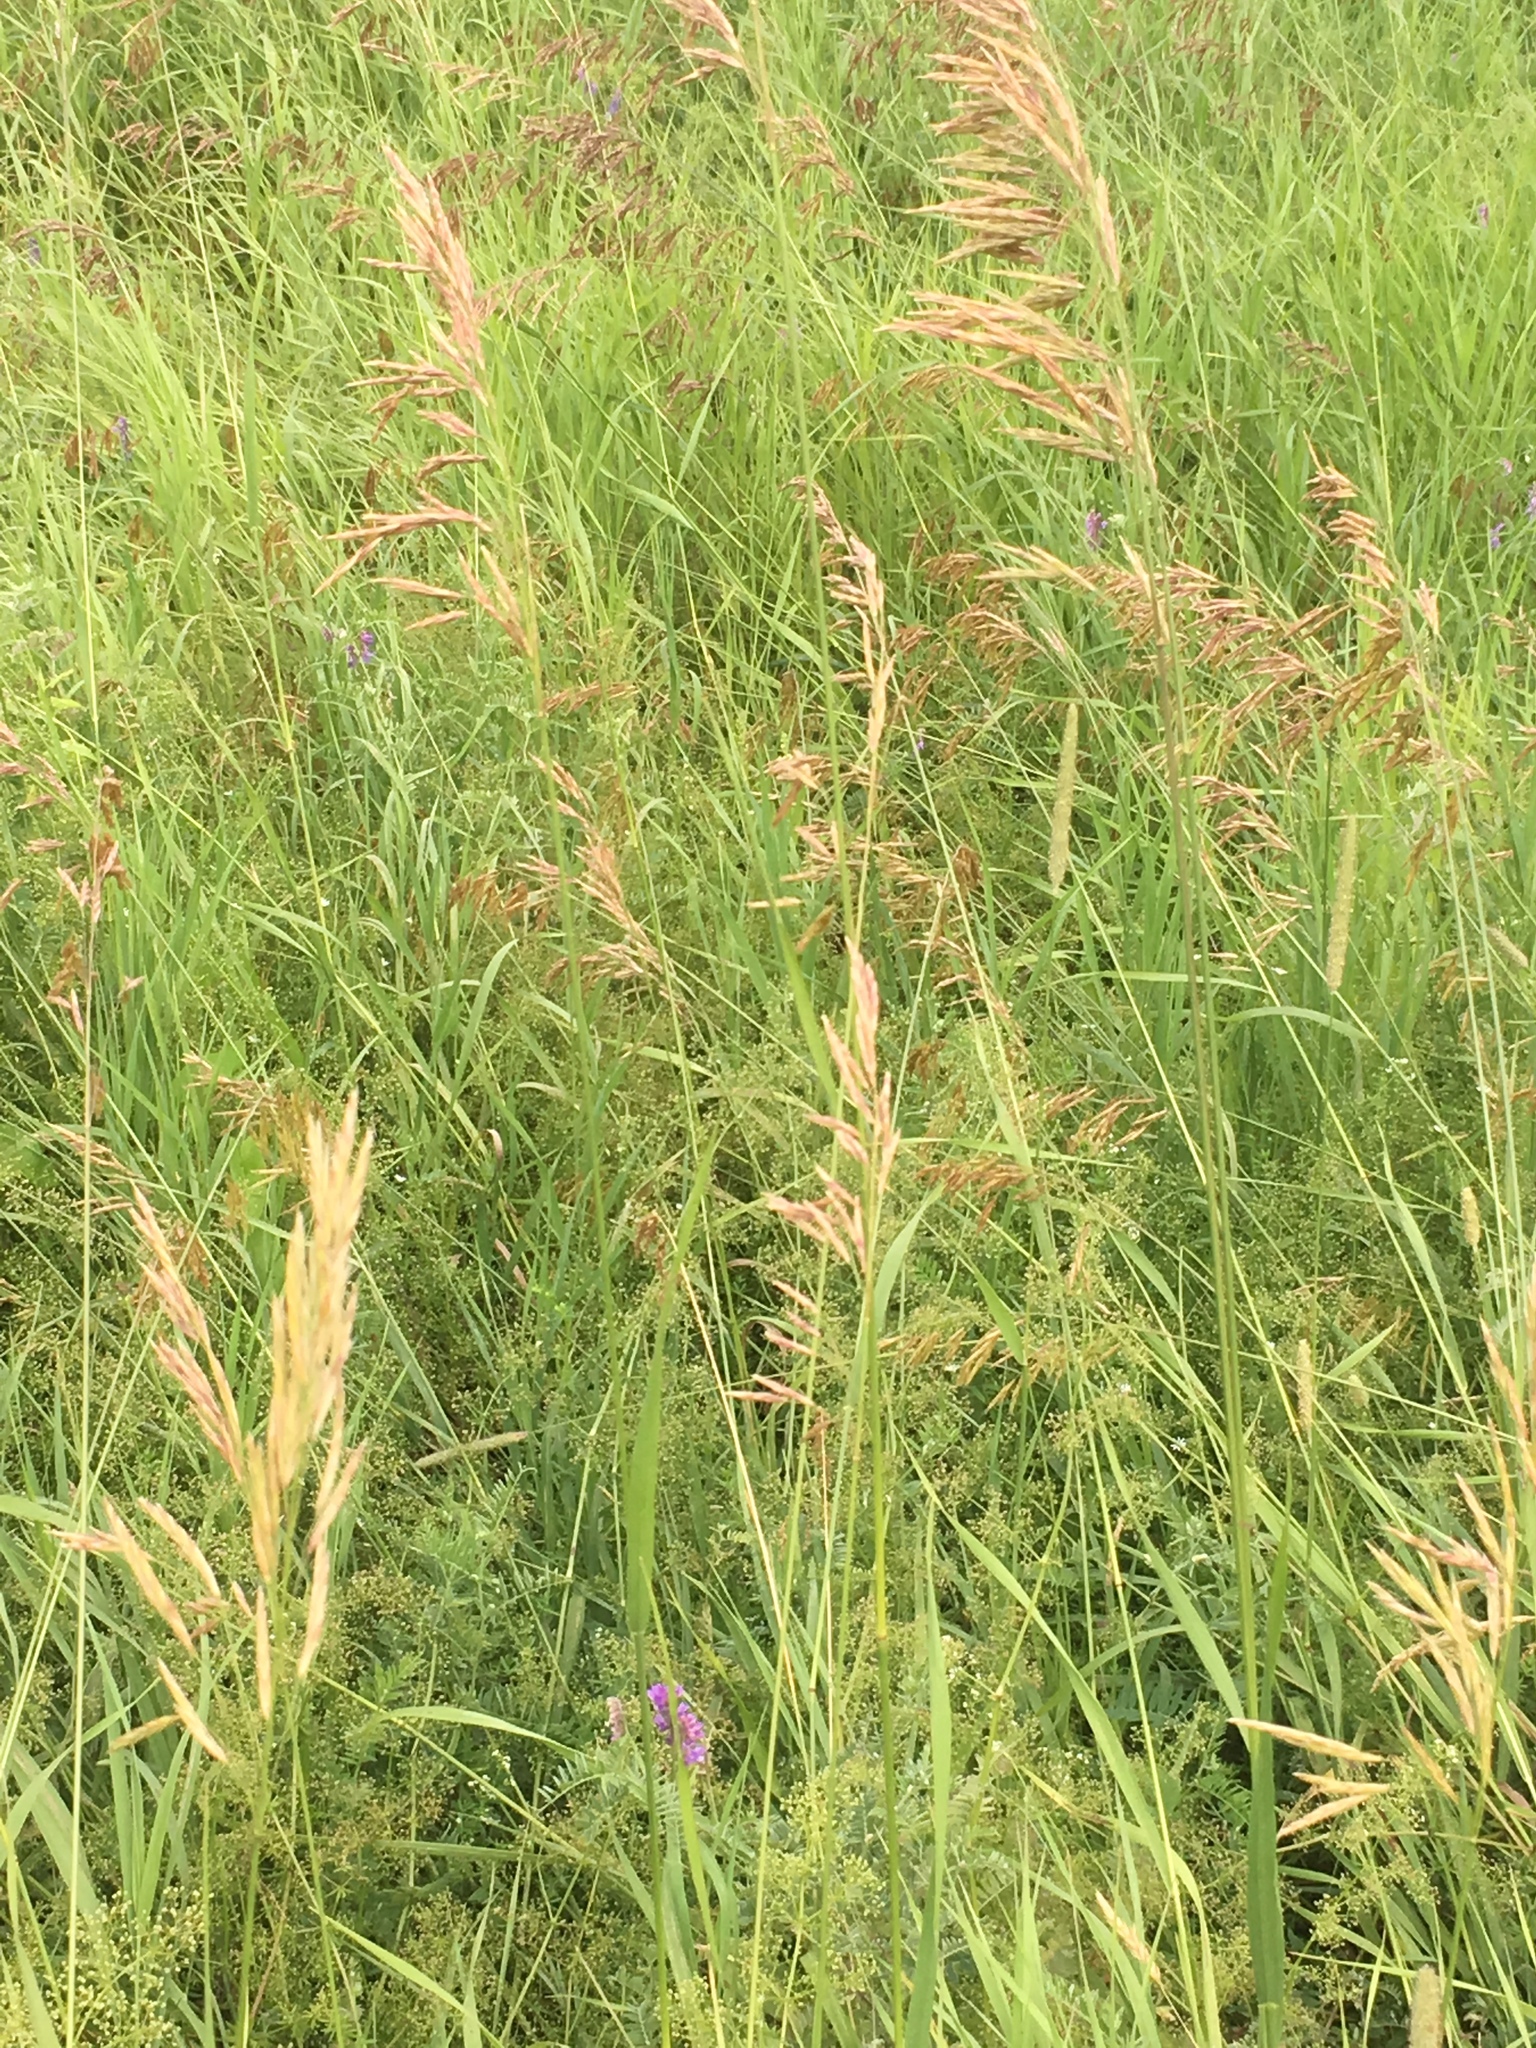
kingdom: Plantae
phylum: Tracheophyta
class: Liliopsida
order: Poales
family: Poaceae
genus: Bromus
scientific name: Bromus inermis
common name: Smooth brome
